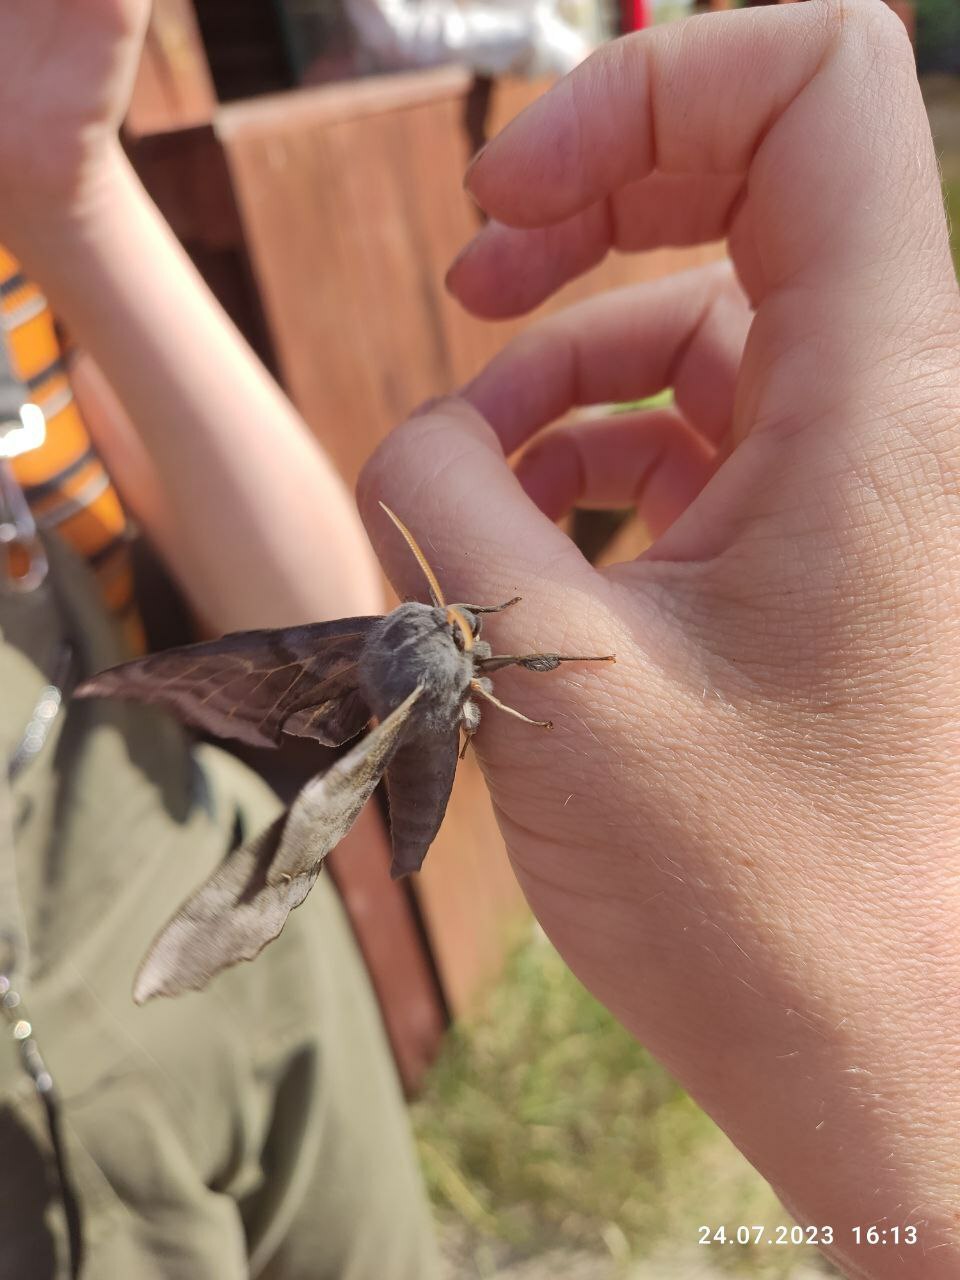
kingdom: Animalia
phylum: Arthropoda
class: Insecta
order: Lepidoptera
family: Sphingidae
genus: Laothoe
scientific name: Laothoe amurensis
